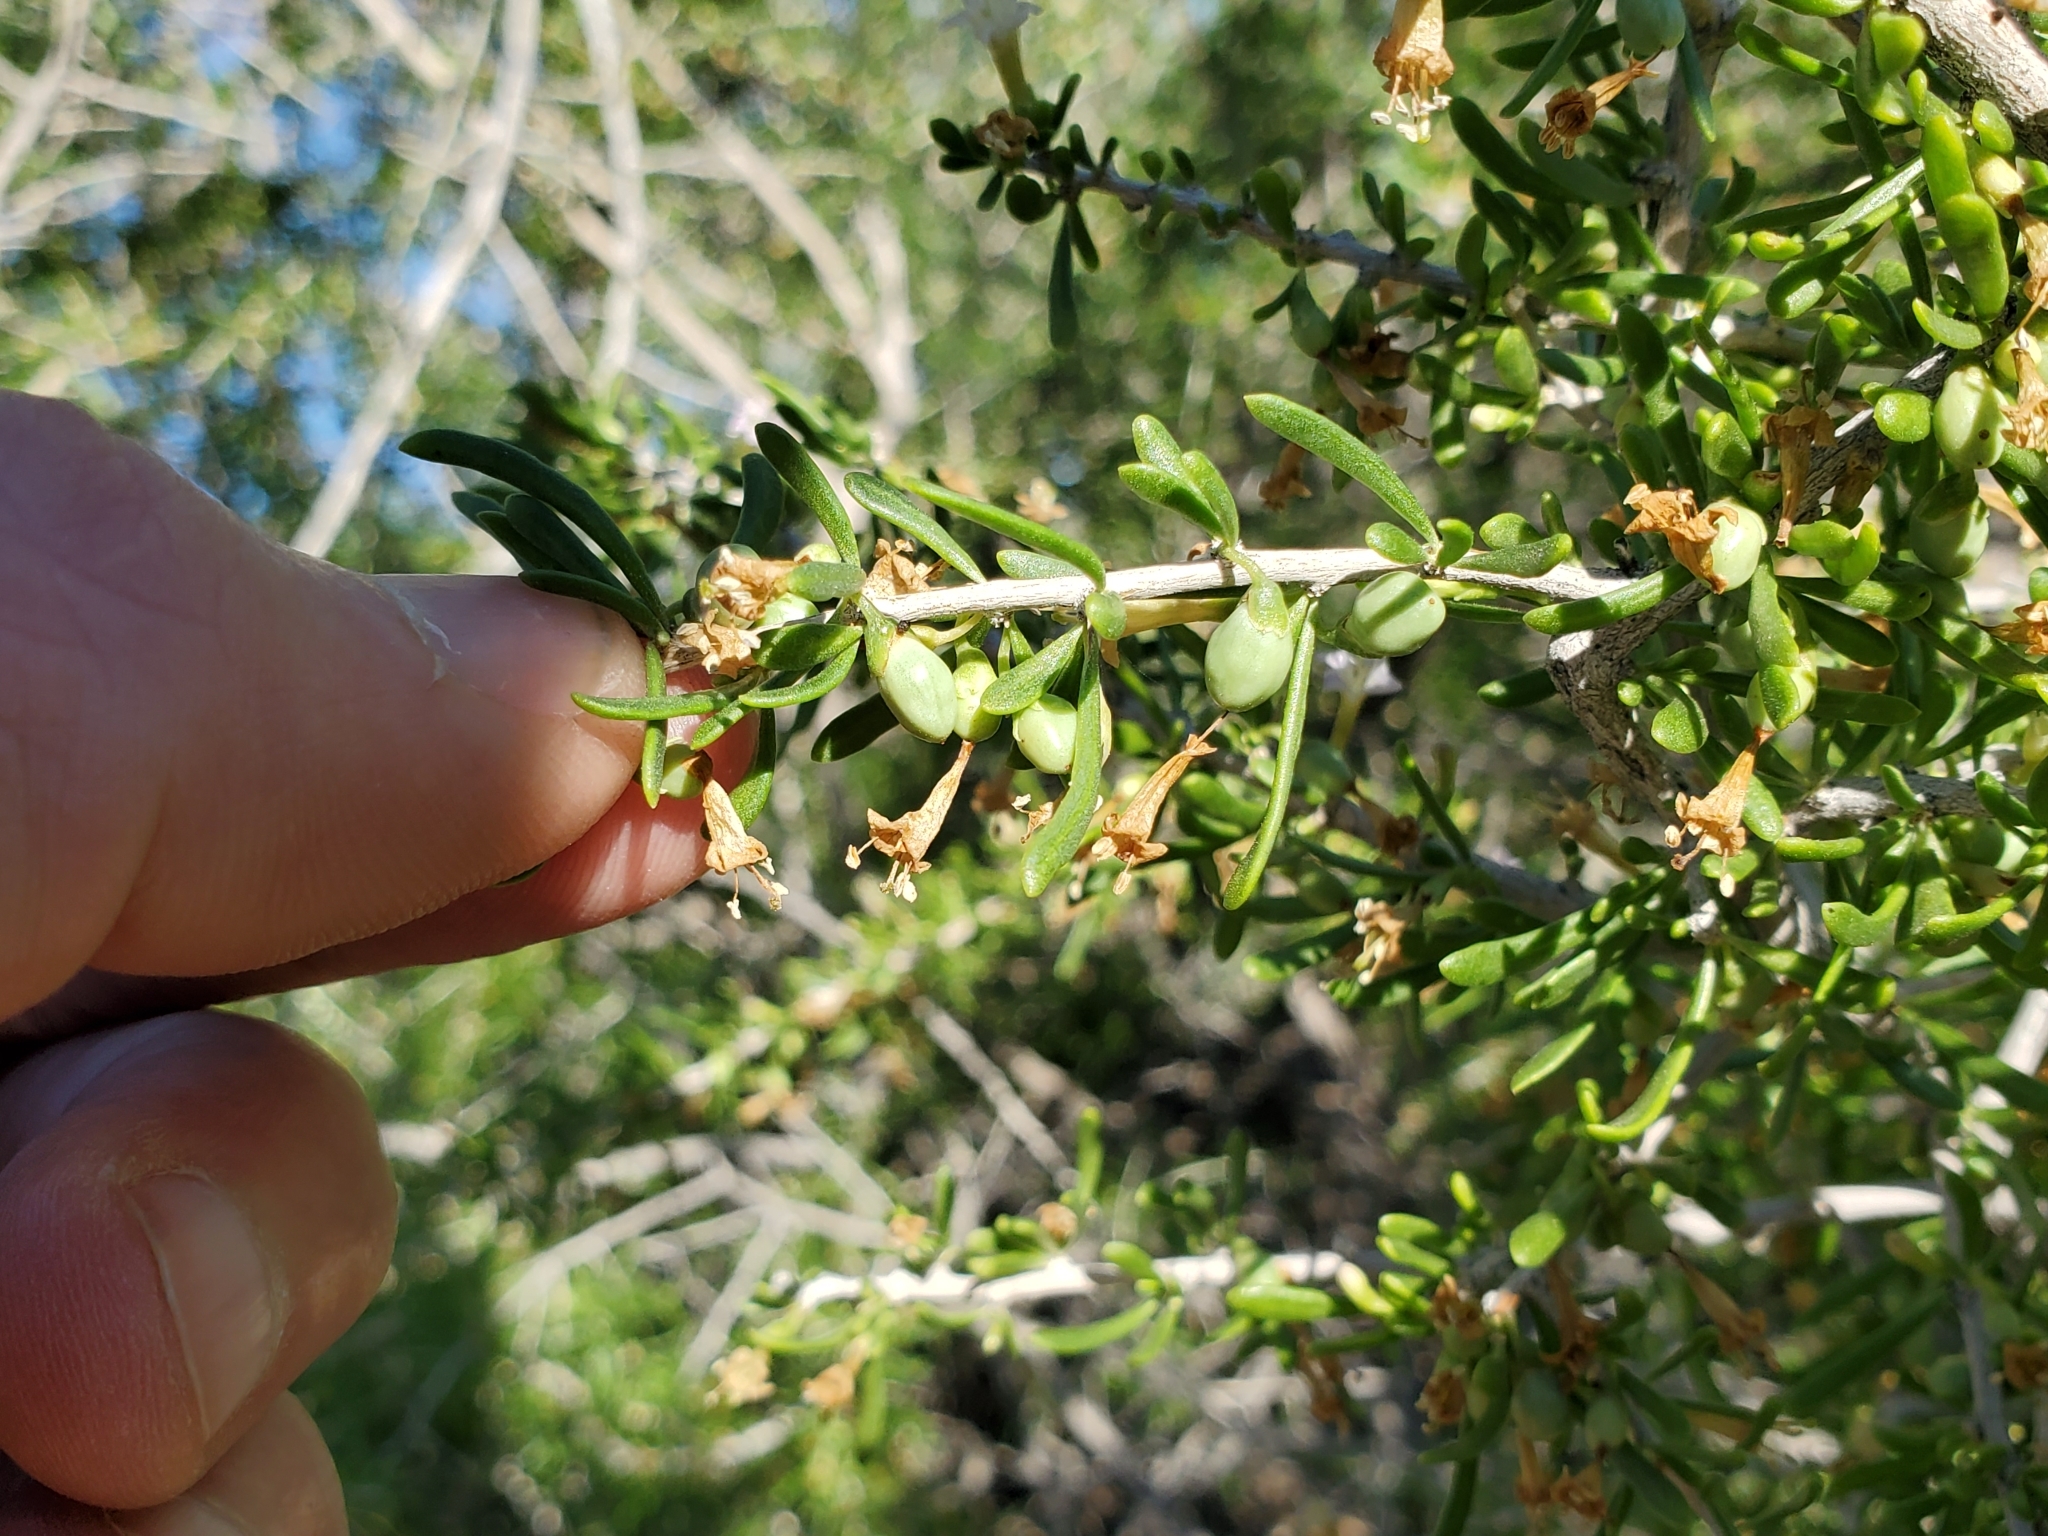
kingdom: Plantae
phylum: Tracheophyta
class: Magnoliopsida
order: Solanales
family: Solanaceae
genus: Lycium
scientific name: Lycium andersonii
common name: Water-jacket
